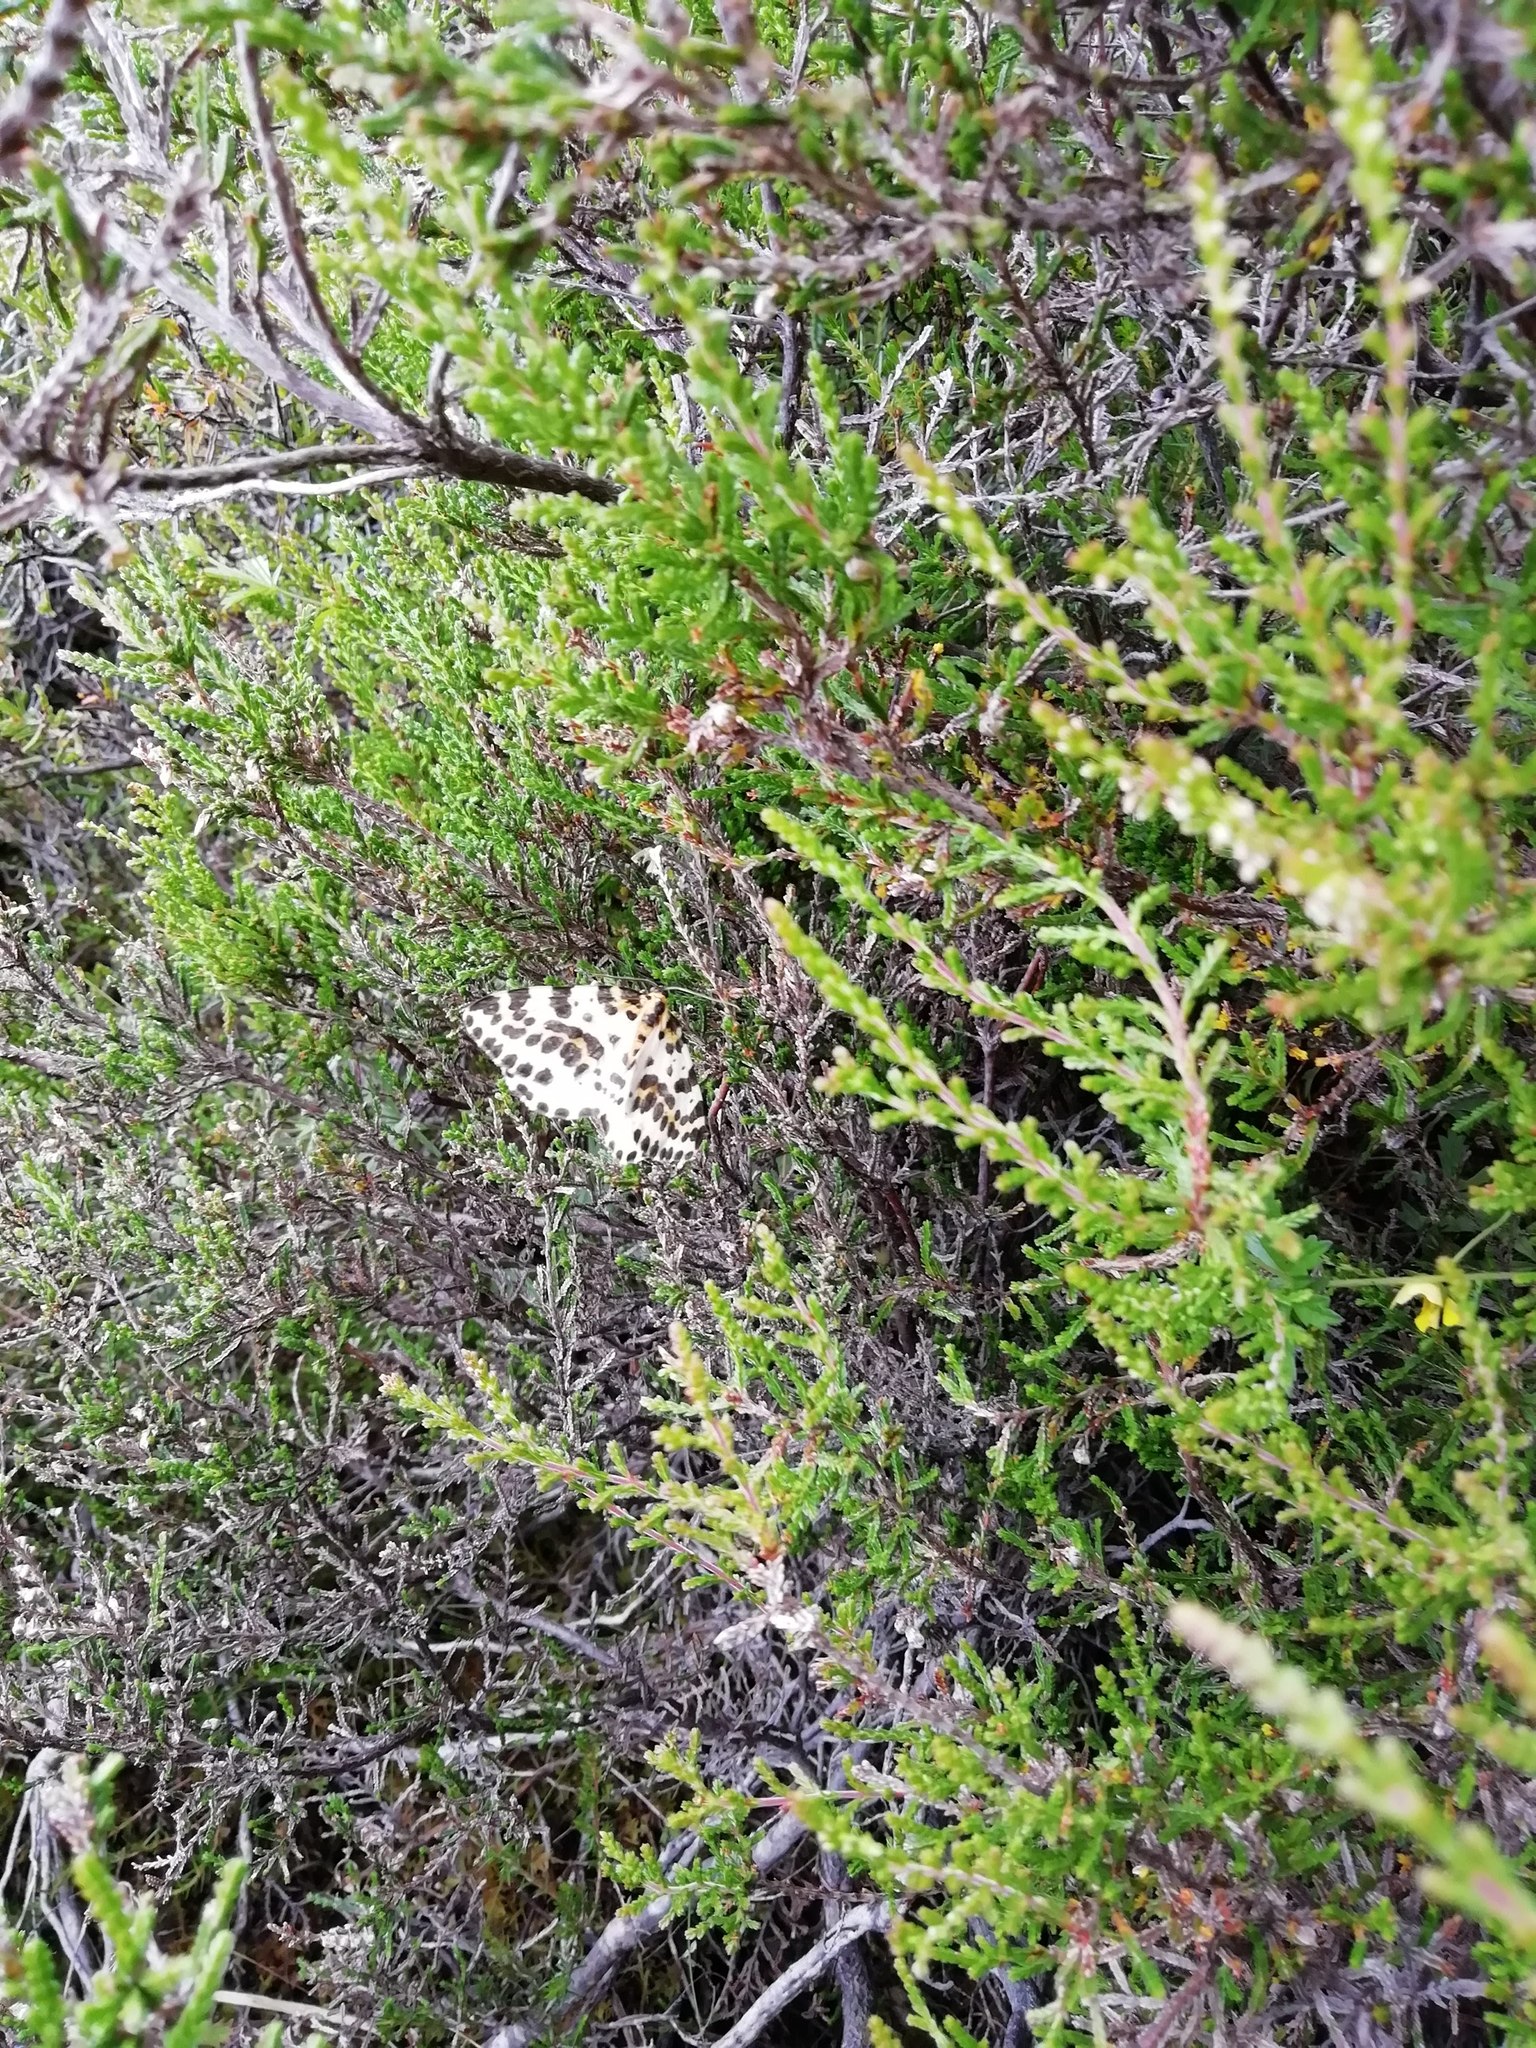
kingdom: Animalia
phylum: Arthropoda
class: Insecta
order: Lepidoptera
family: Geometridae
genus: Abraxas
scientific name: Abraxas grossulariata
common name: Magpie
